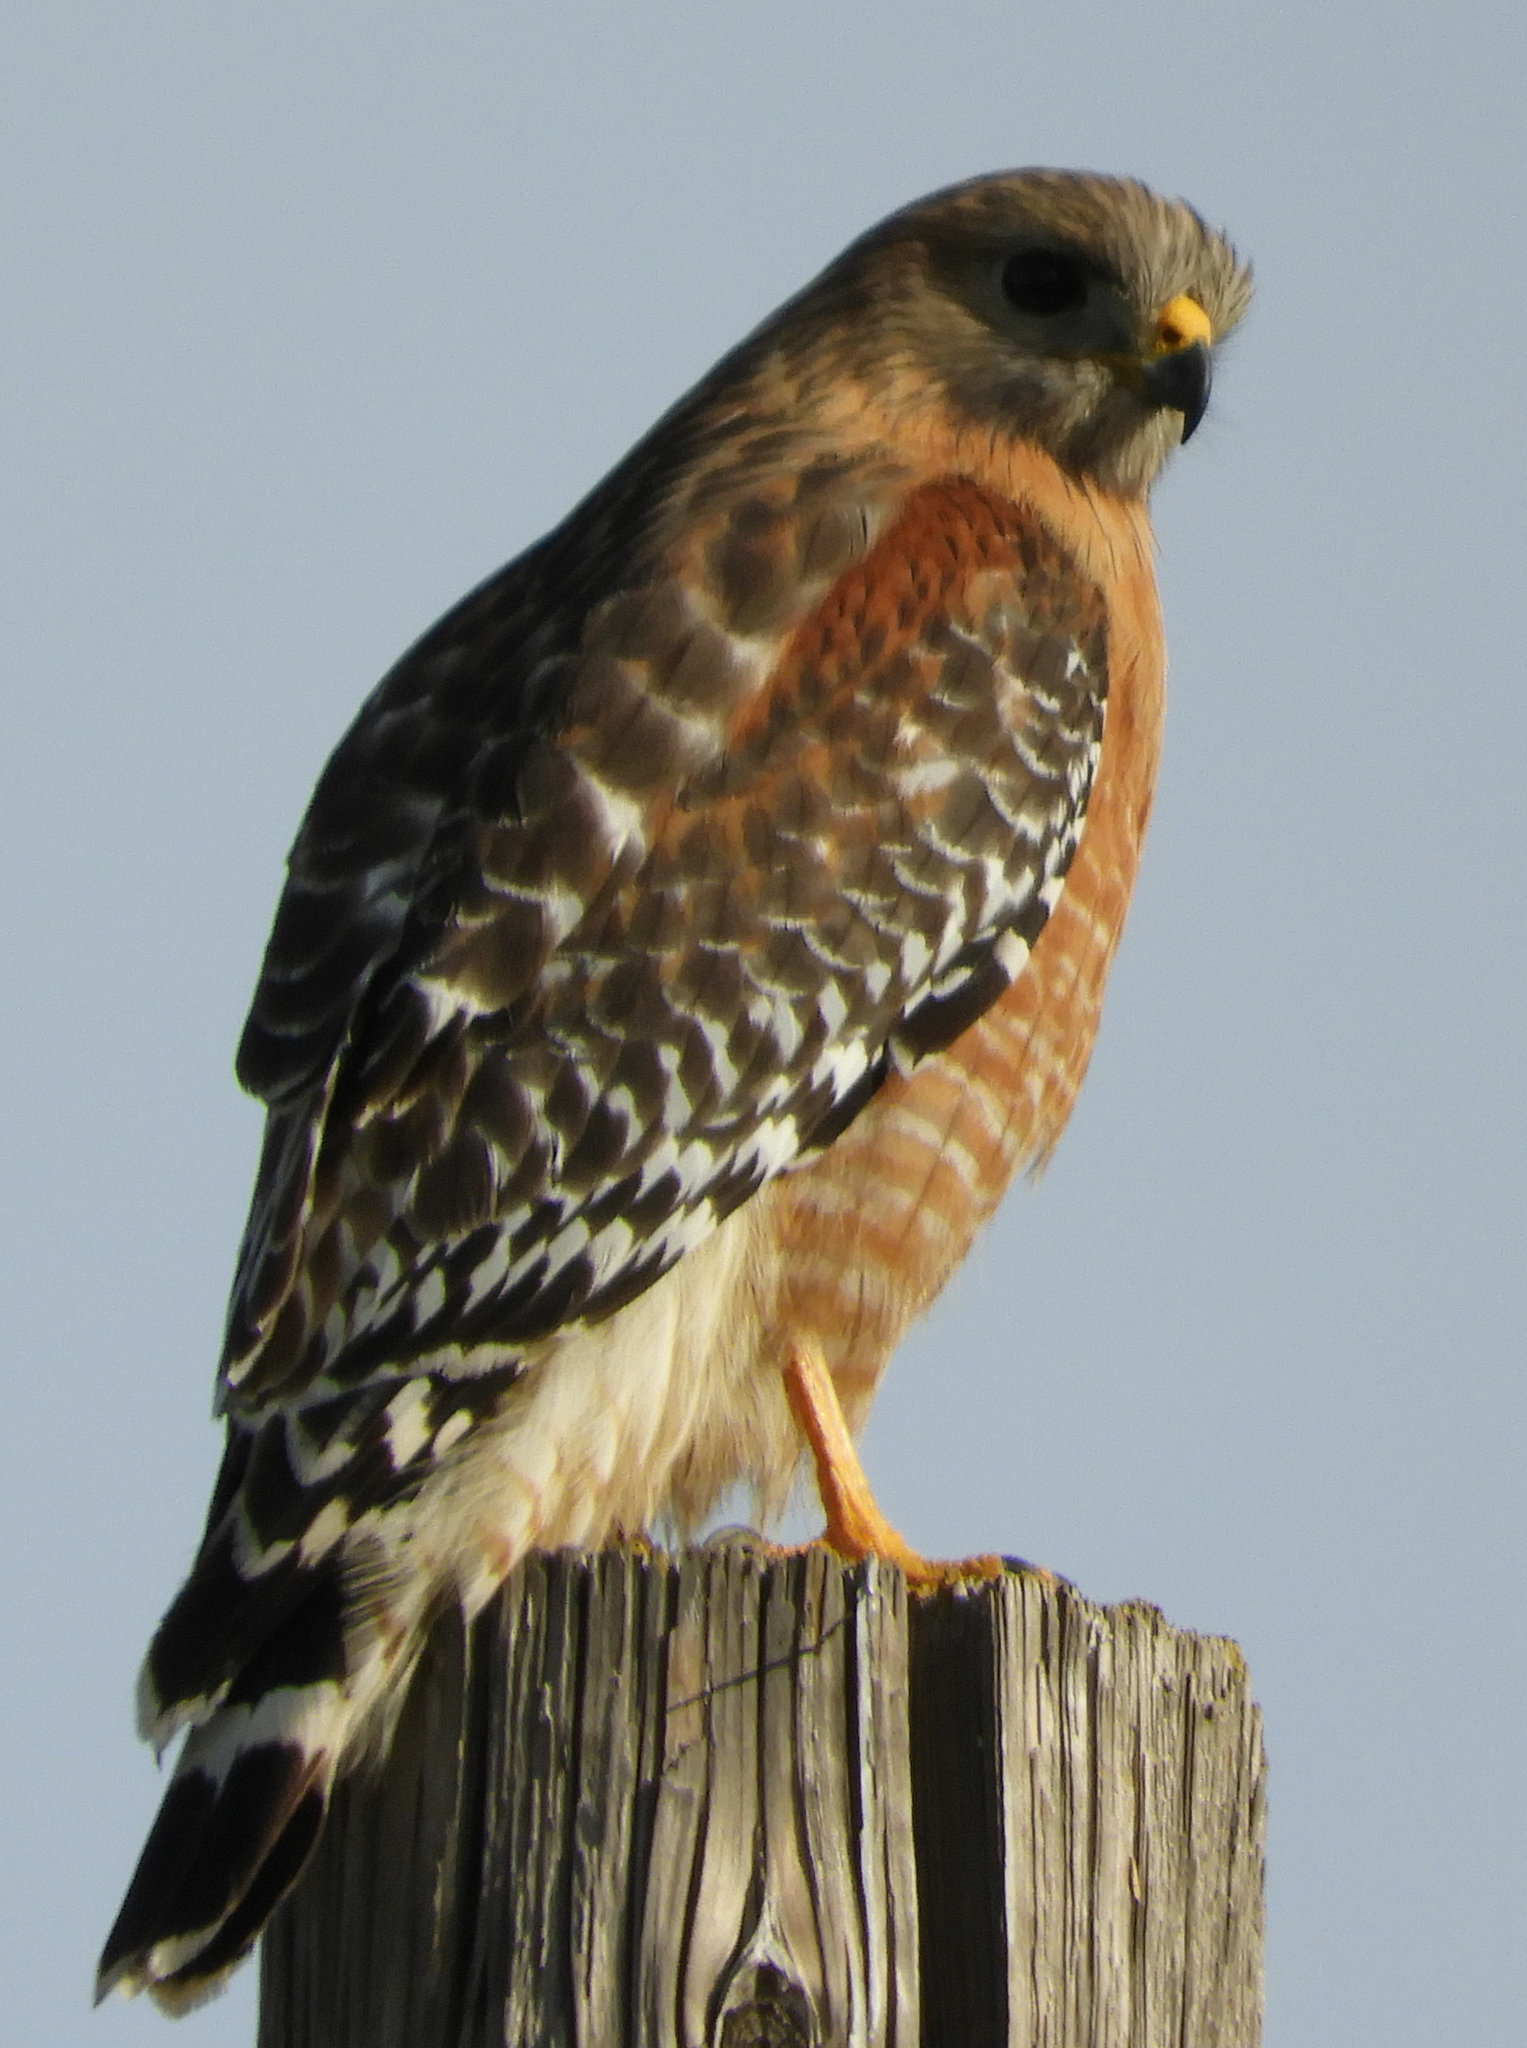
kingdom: Animalia
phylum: Chordata
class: Aves
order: Accipitriformes
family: Accipitridae
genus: Buteo
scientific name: Buteo lineatus
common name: Red-shouldered hawk
